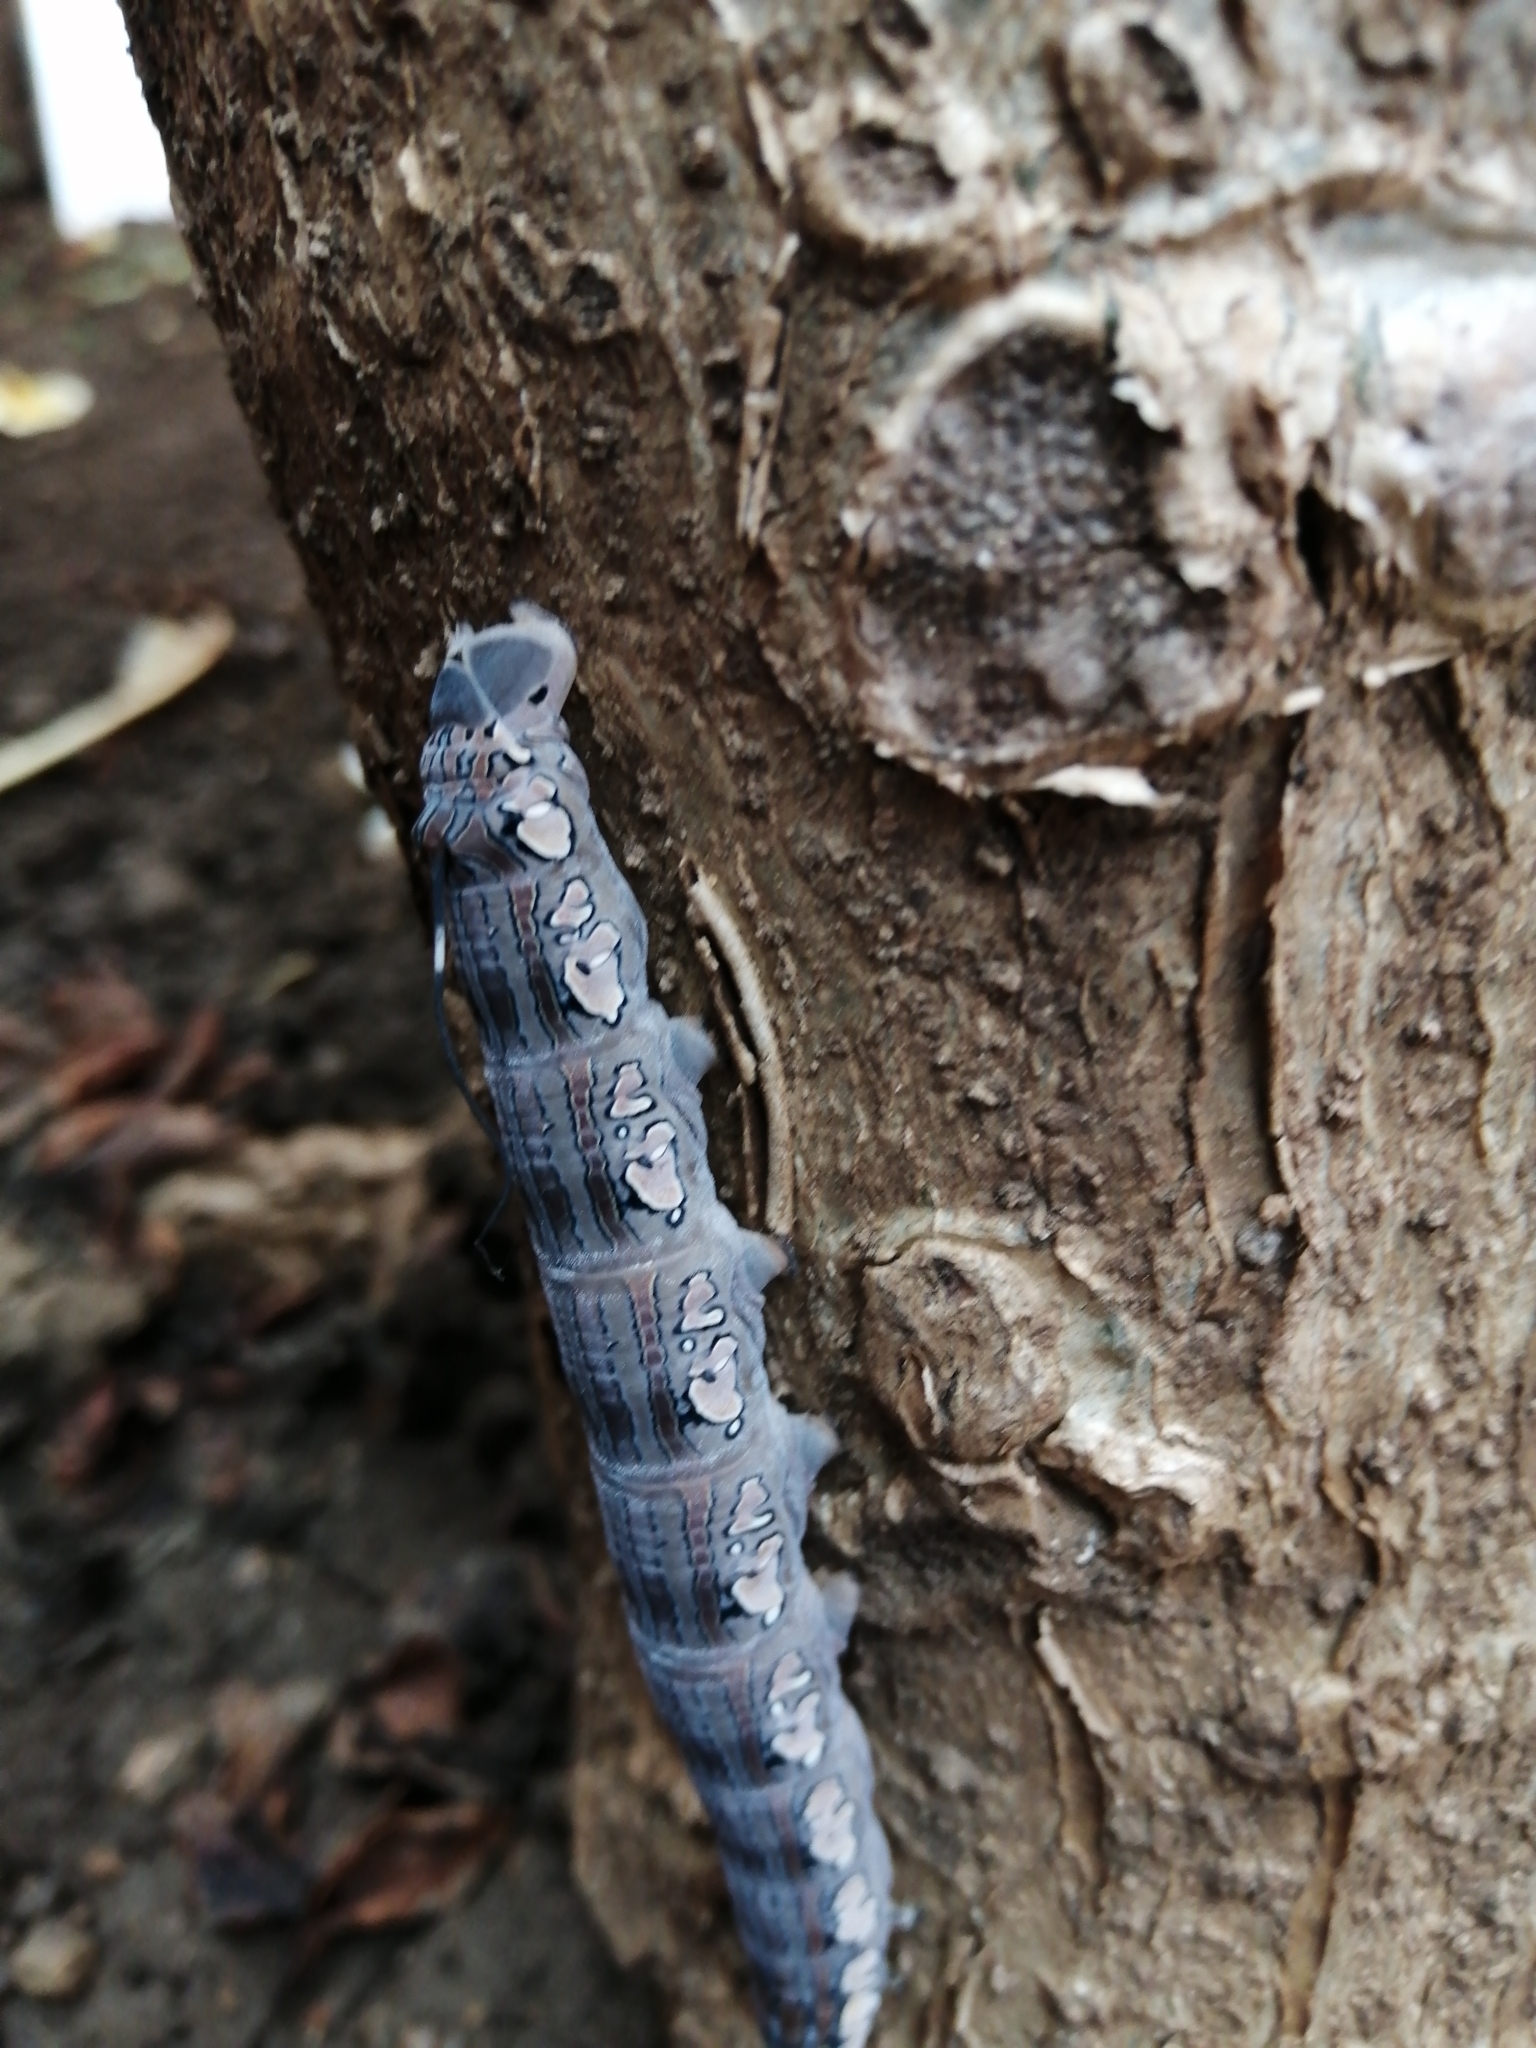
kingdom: Animalia
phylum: Arthropoda
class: Insecta
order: Lepidoptera
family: Sphingidae
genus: Isognathus
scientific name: Isognathus rimosa
